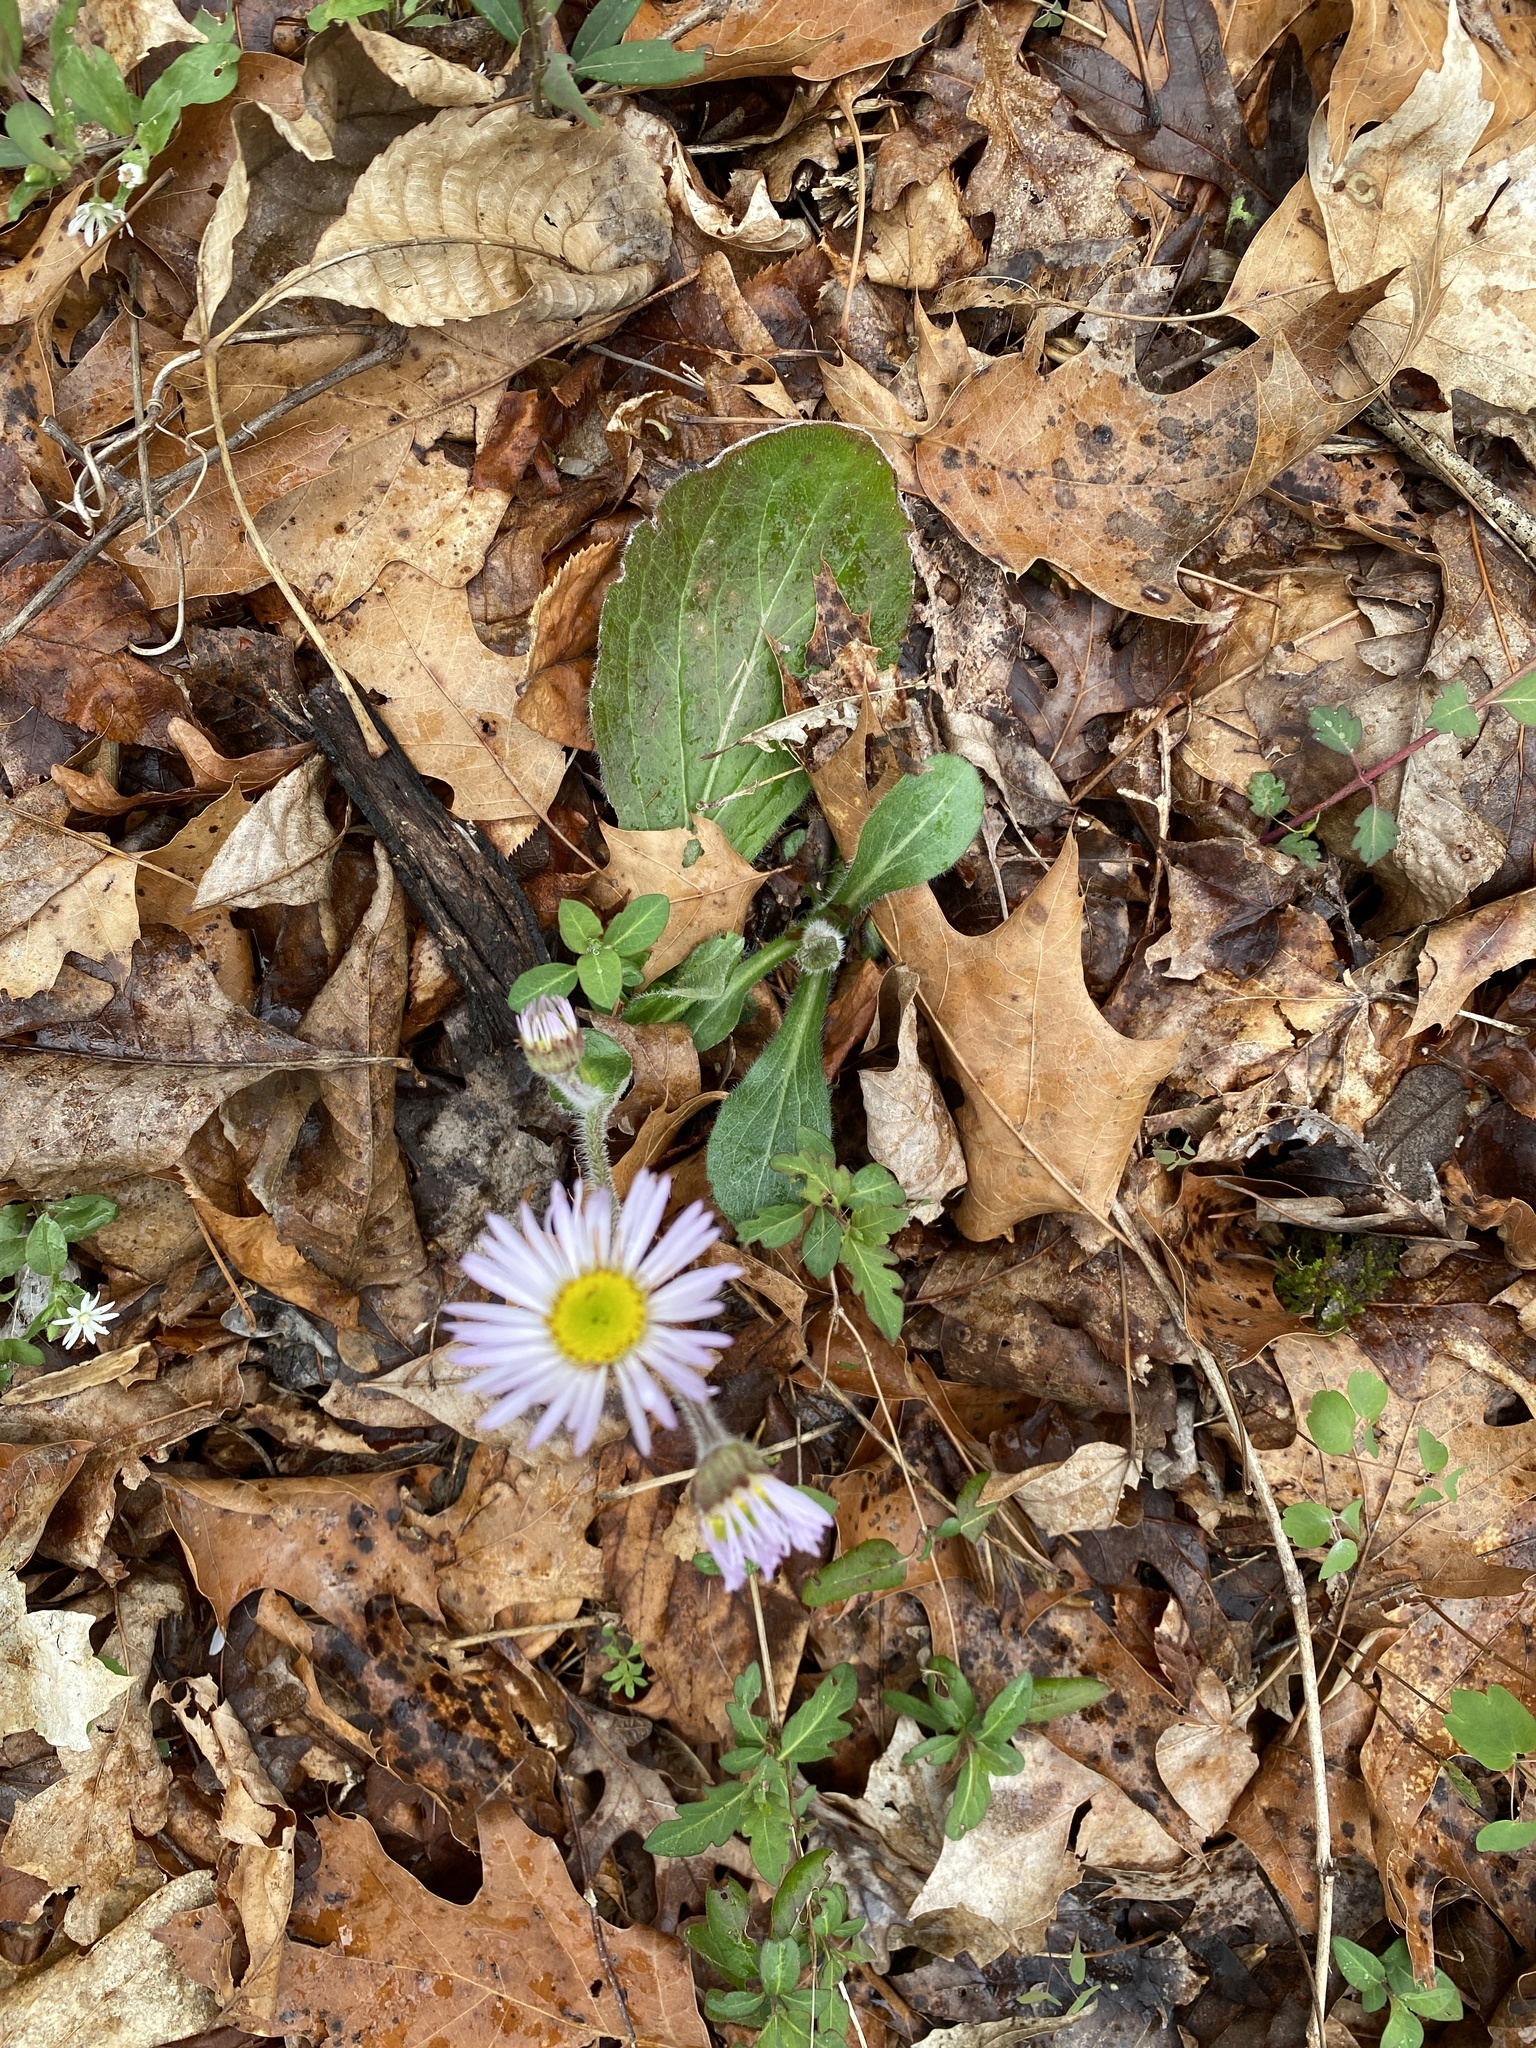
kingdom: Plantae
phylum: Tracheophyta
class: Magnoliopsida
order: Asterales
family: Asteraceae
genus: Erigeron
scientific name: Erigeron pulchellus
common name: Hairy fleabane
